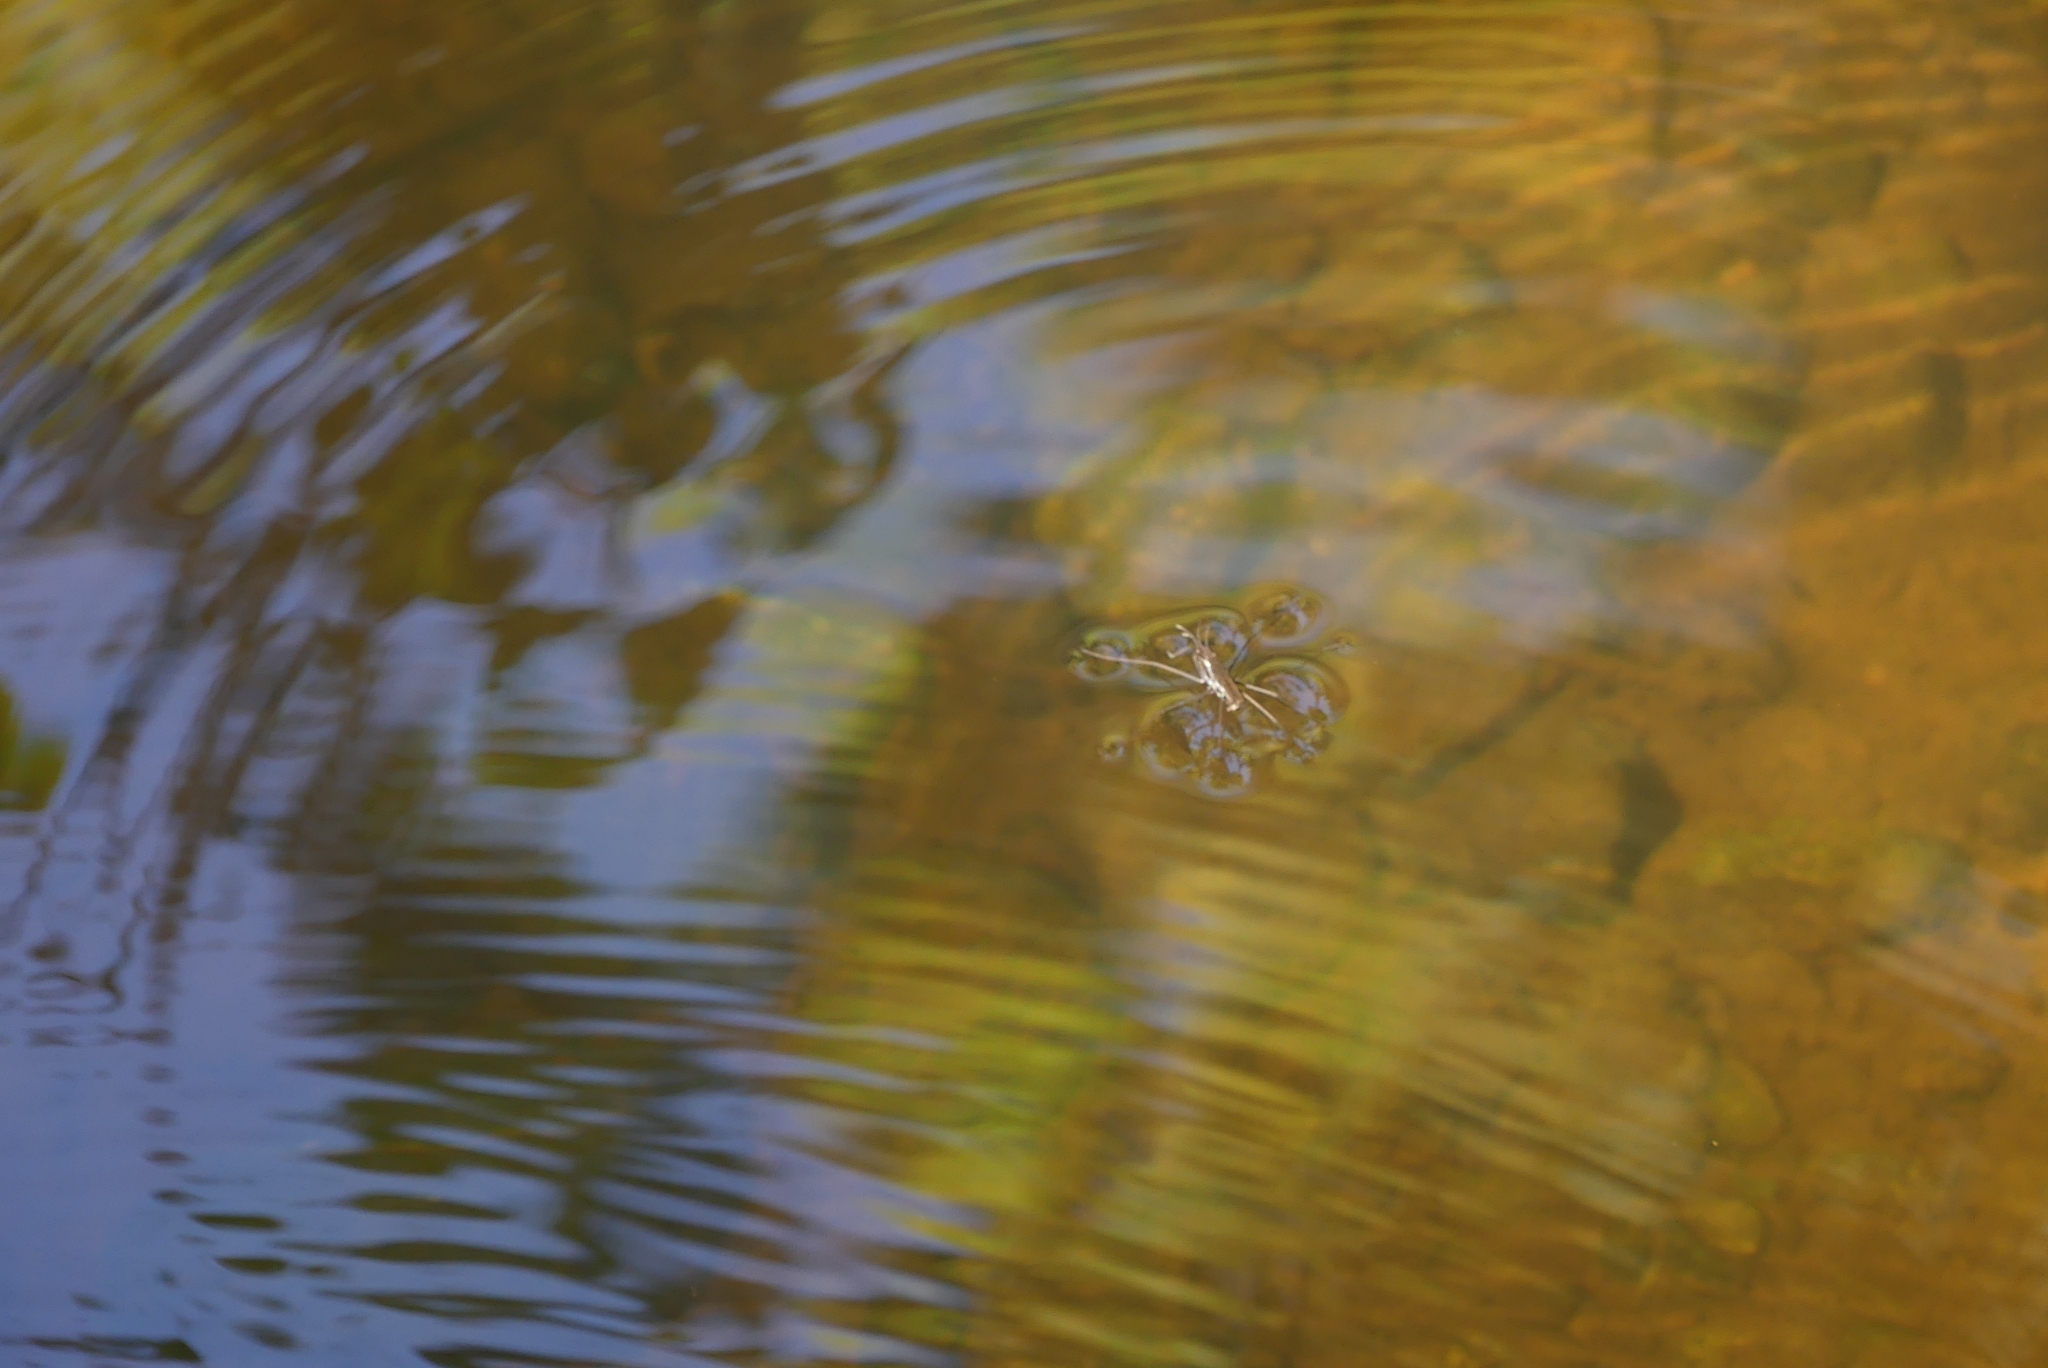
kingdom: Animalia
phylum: Arthropoda
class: Insecta
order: Hemiptera
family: Gerridae
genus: Aquarius
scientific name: Aquarius remigis
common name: Common water strider
